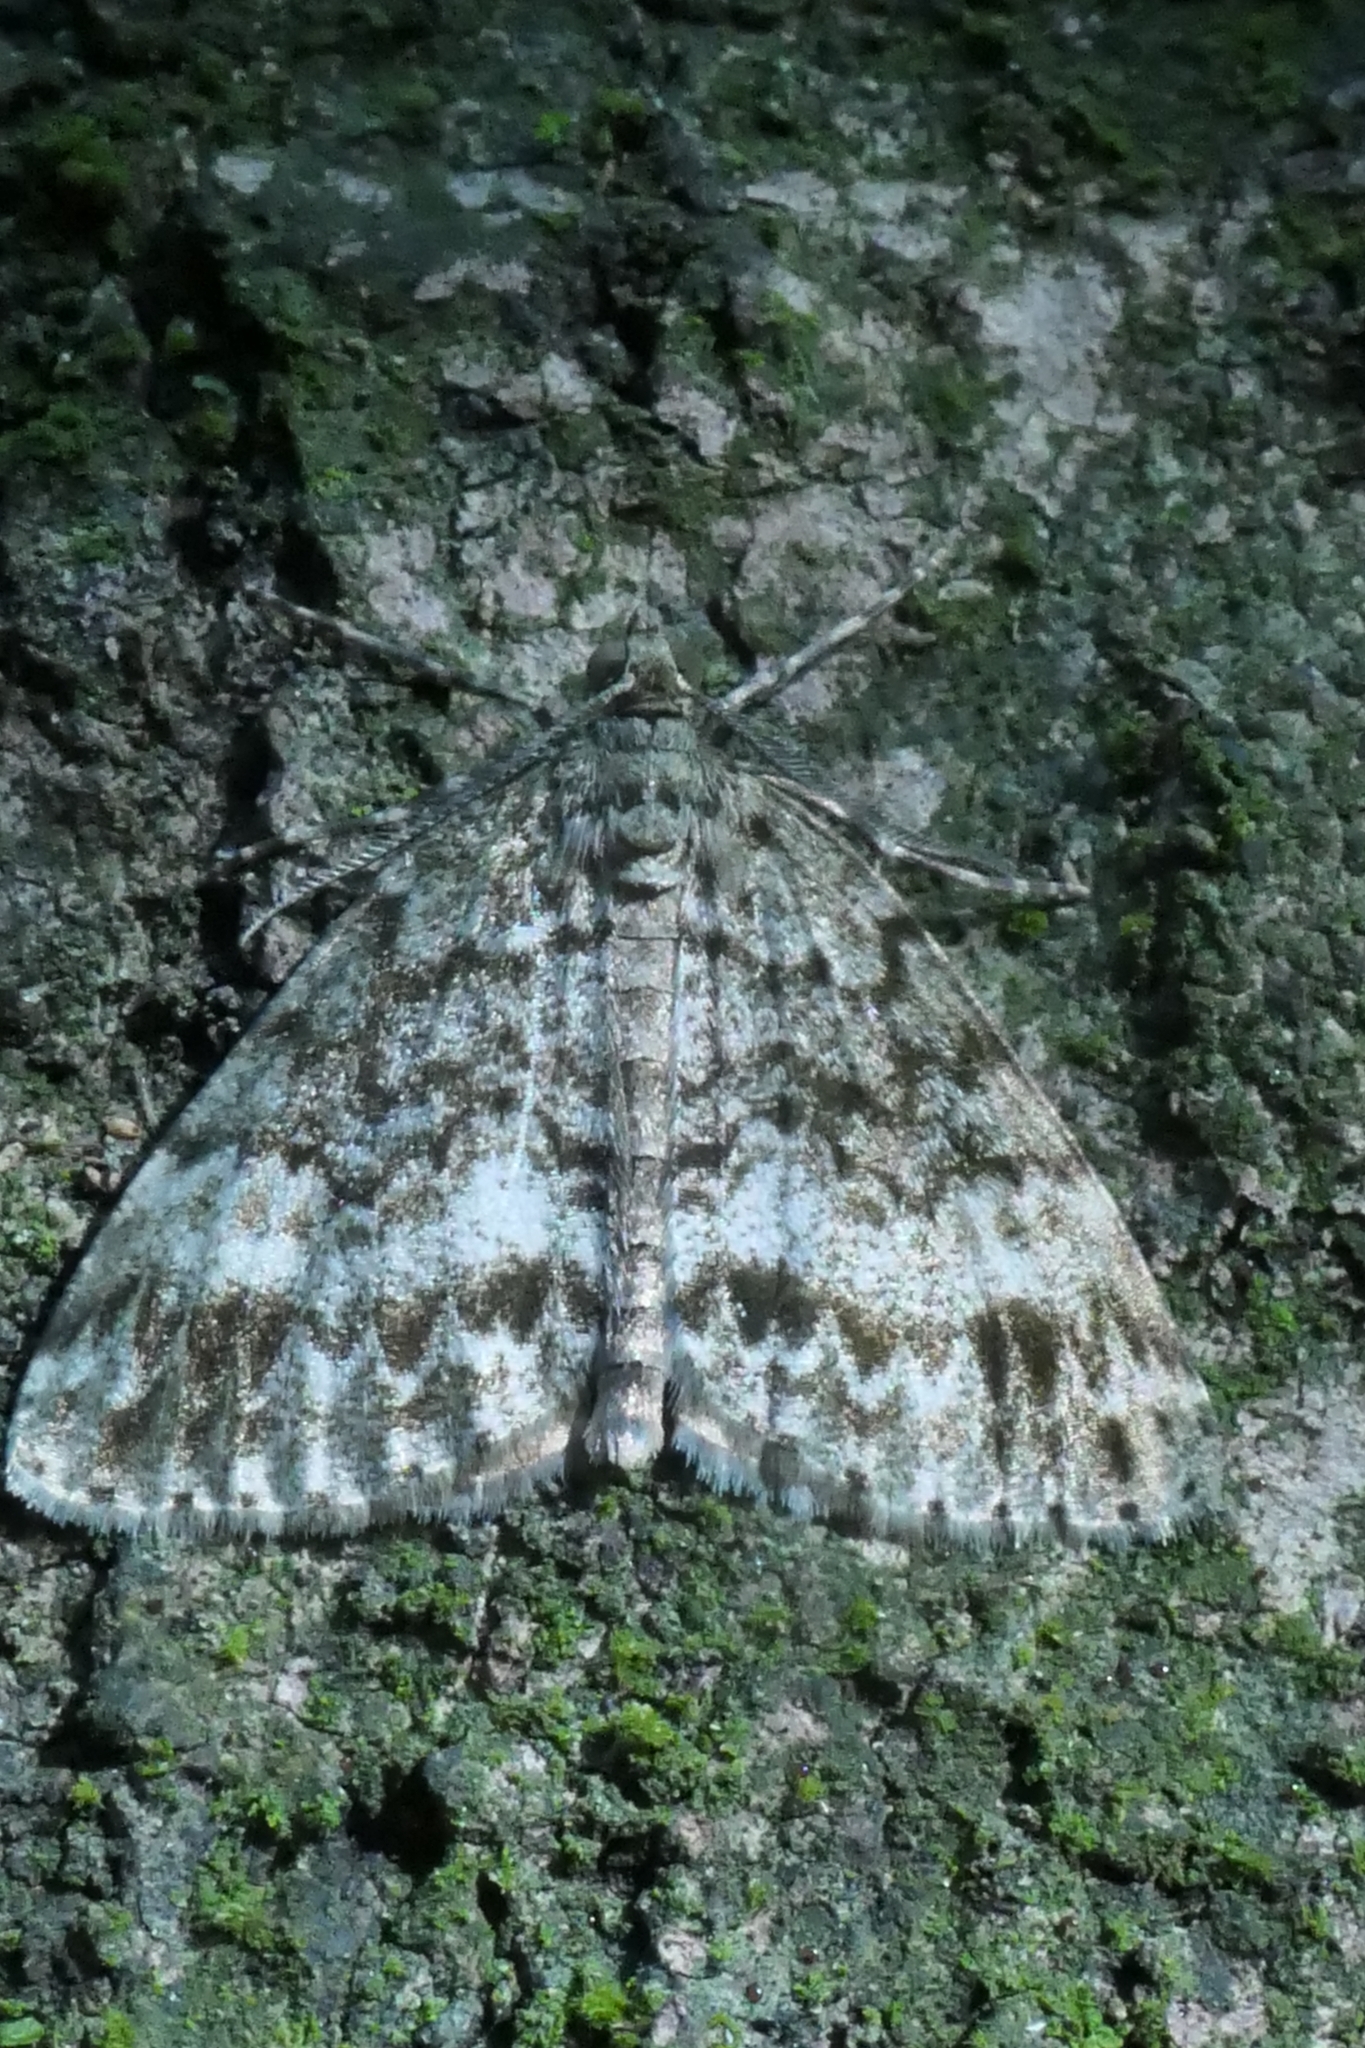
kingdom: Animalia
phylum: Arthropoda
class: Insecta
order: Lepidoptera
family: Geometridae
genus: Pseudocoremia
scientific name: Pseudocoremia indistincta
